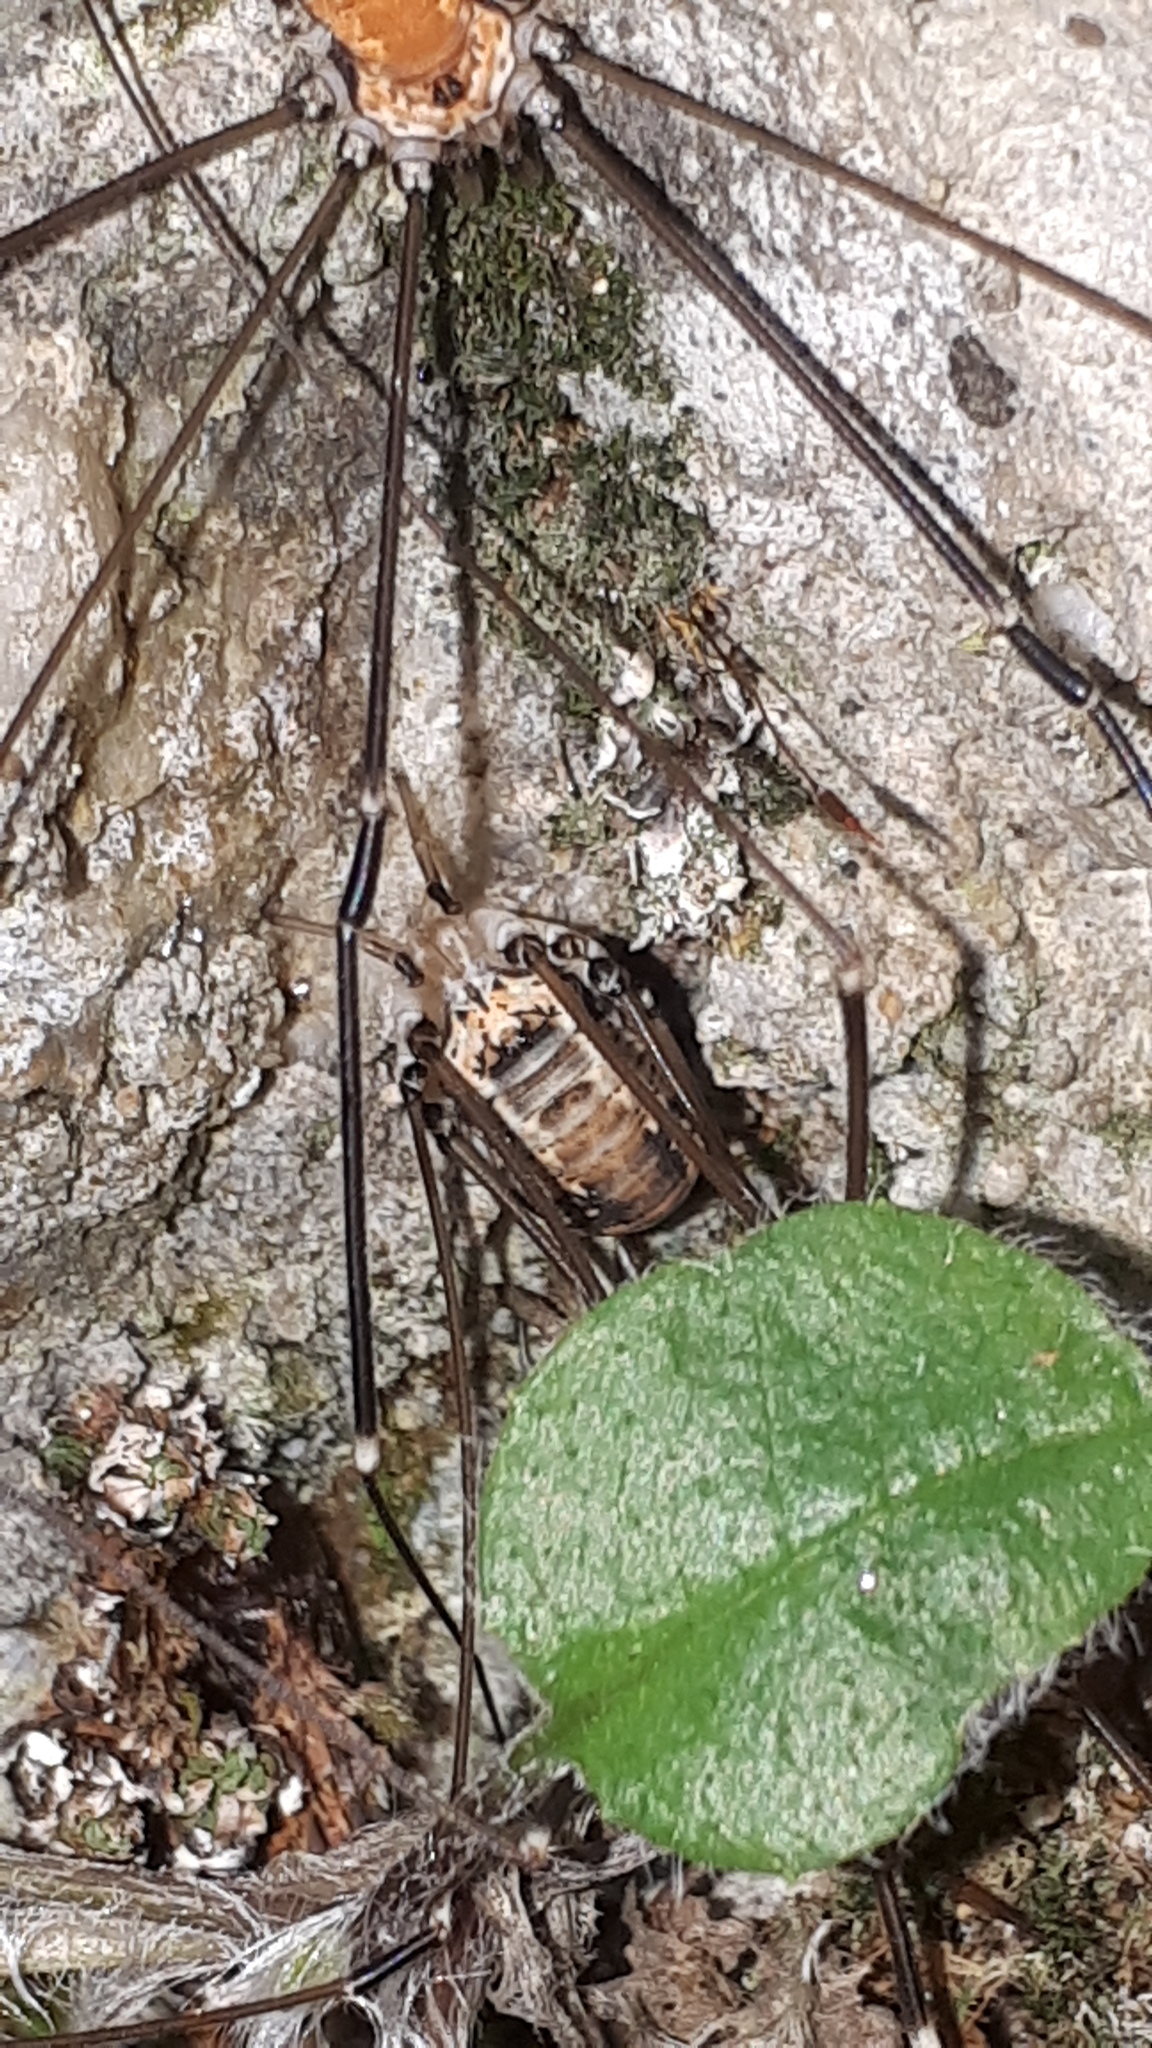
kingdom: Animalia
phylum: Arthropoda
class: Arachnida
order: Opiliones
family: Sclerosomatidae
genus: Leiobunum
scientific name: Leiobunum limbatum
